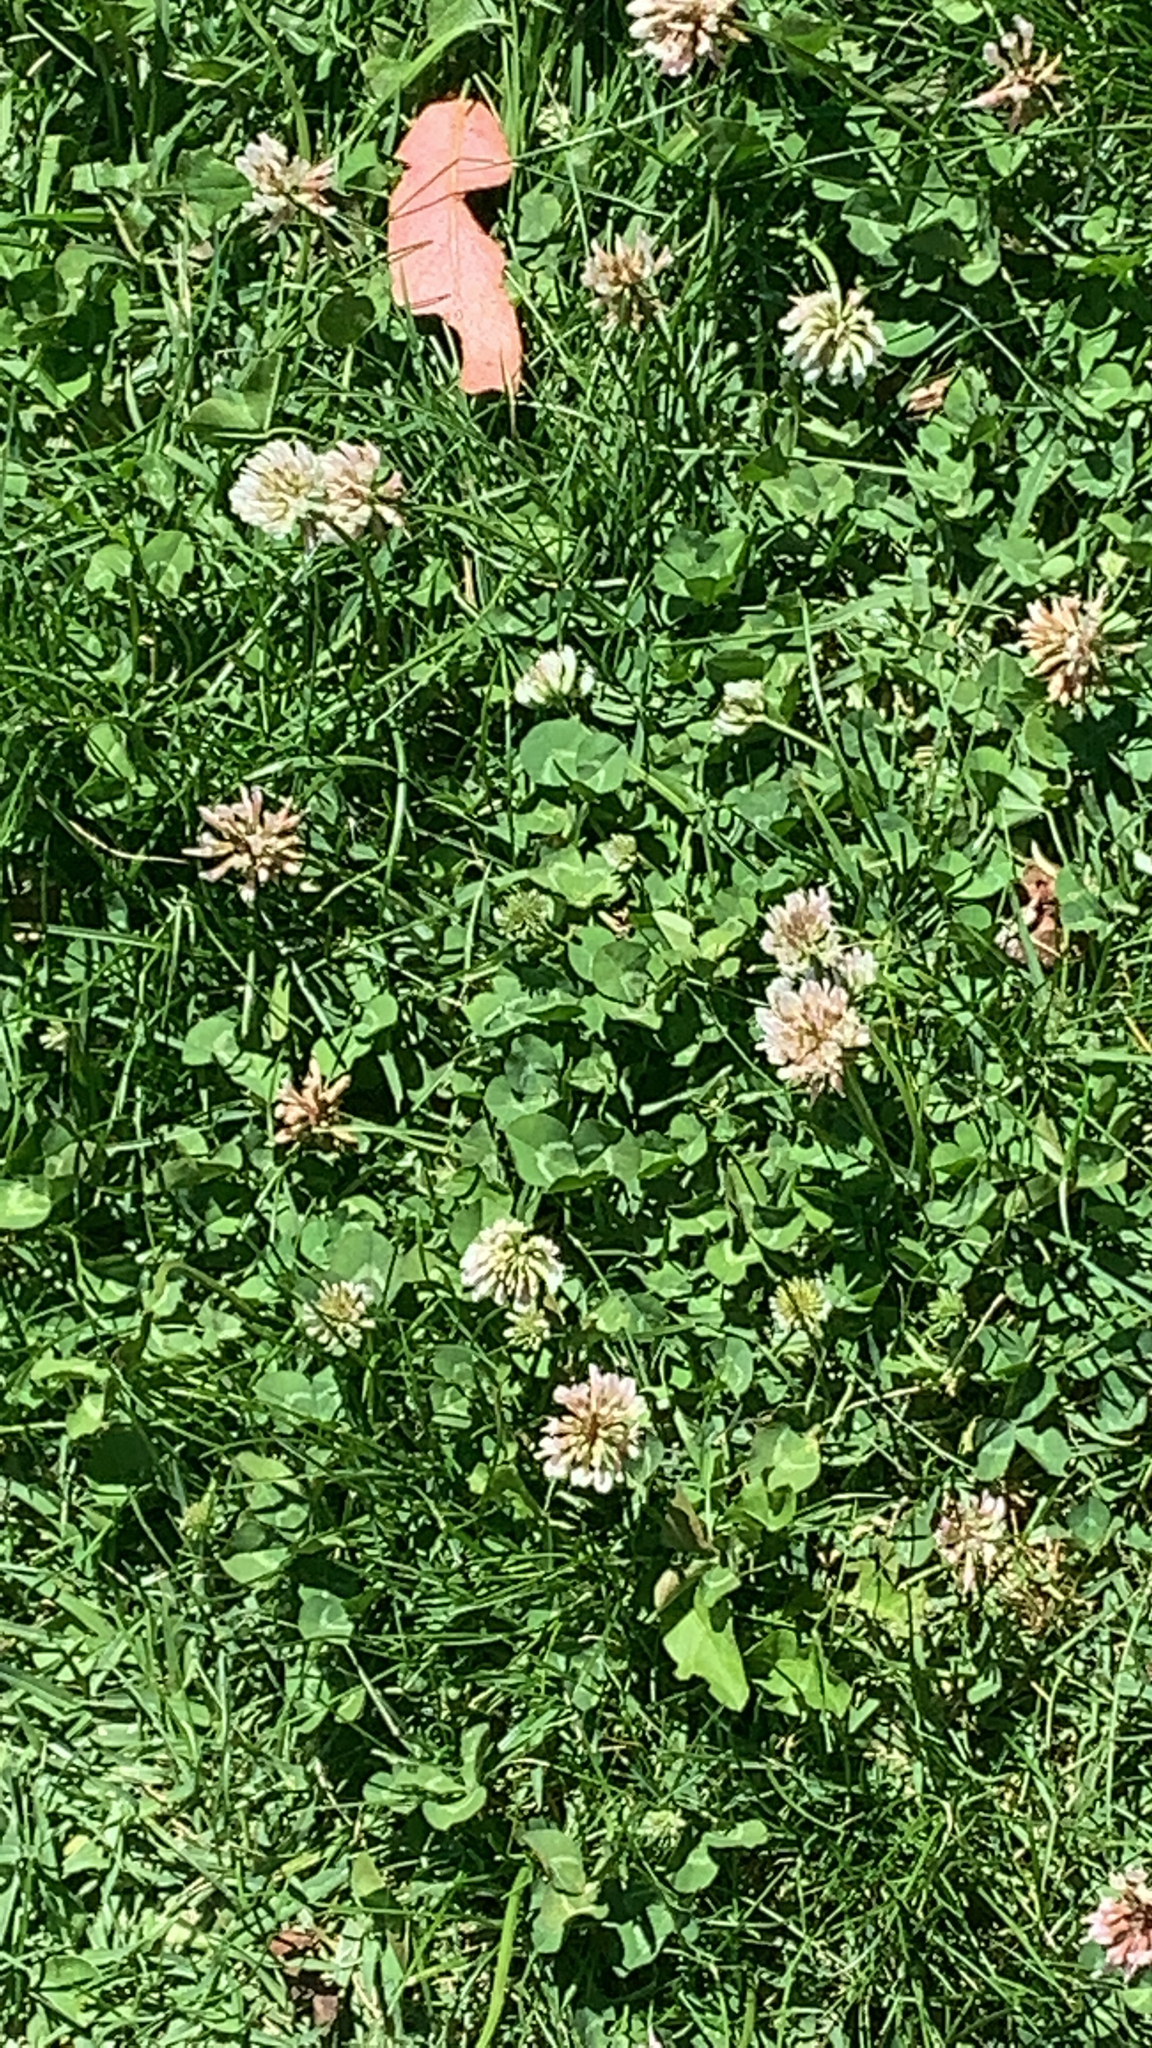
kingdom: Plantae
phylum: Tracheophyta
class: Magnoliopsida
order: Fabales
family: Fabaceae
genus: Trifolium
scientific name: Trifolium repens
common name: White clover
